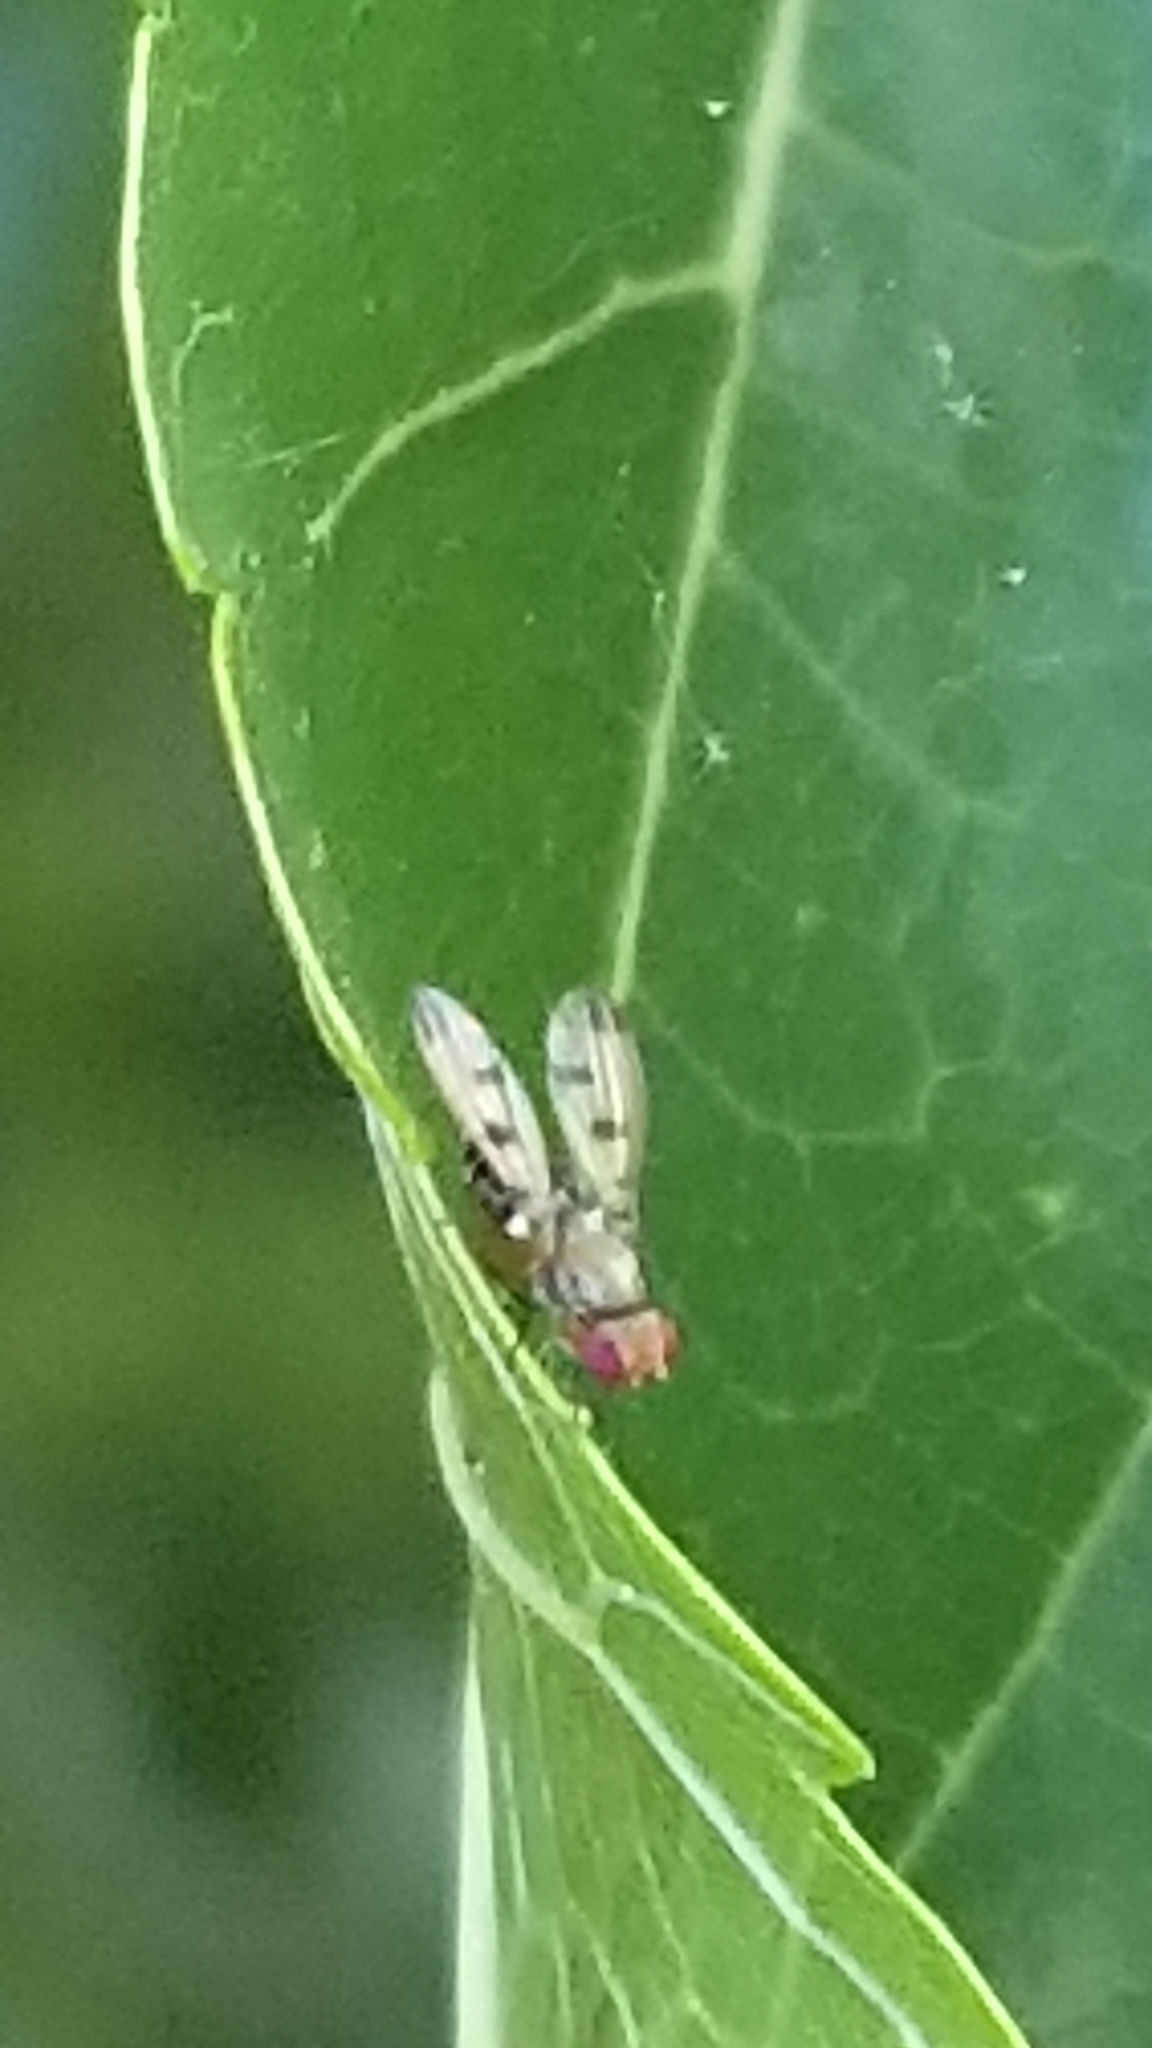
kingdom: Animalia
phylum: Arthropoda
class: Insecta
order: Diptera
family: Opomyzidae
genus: Geomyza
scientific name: Geomyza tripunctata
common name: Cereal fly
